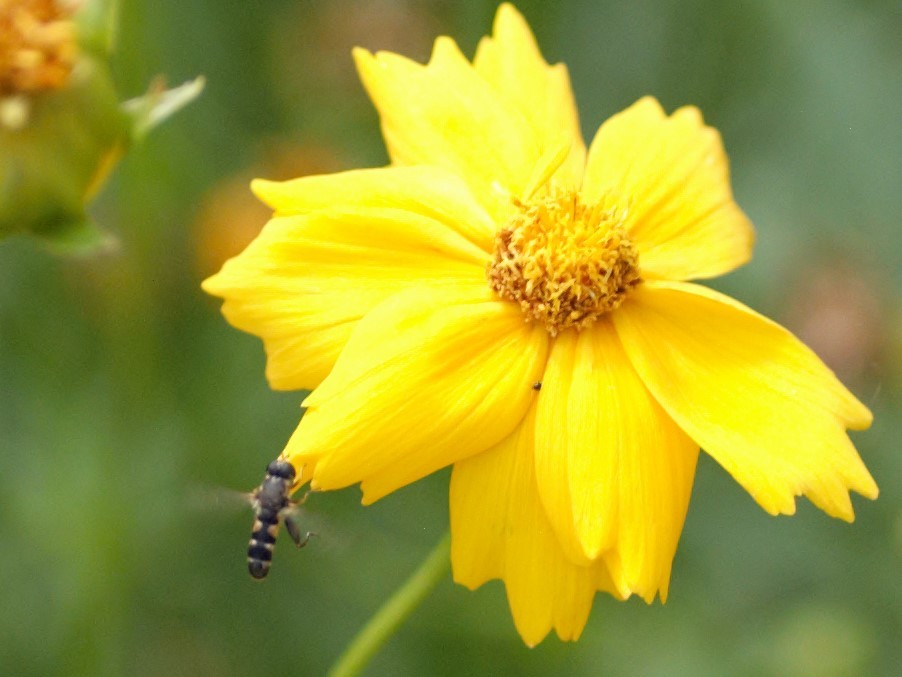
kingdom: Animalia
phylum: Arthropoda
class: Insecta
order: Diptera
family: Syrphidae
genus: Syritta
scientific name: Syritta pipiens
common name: Hover fly
